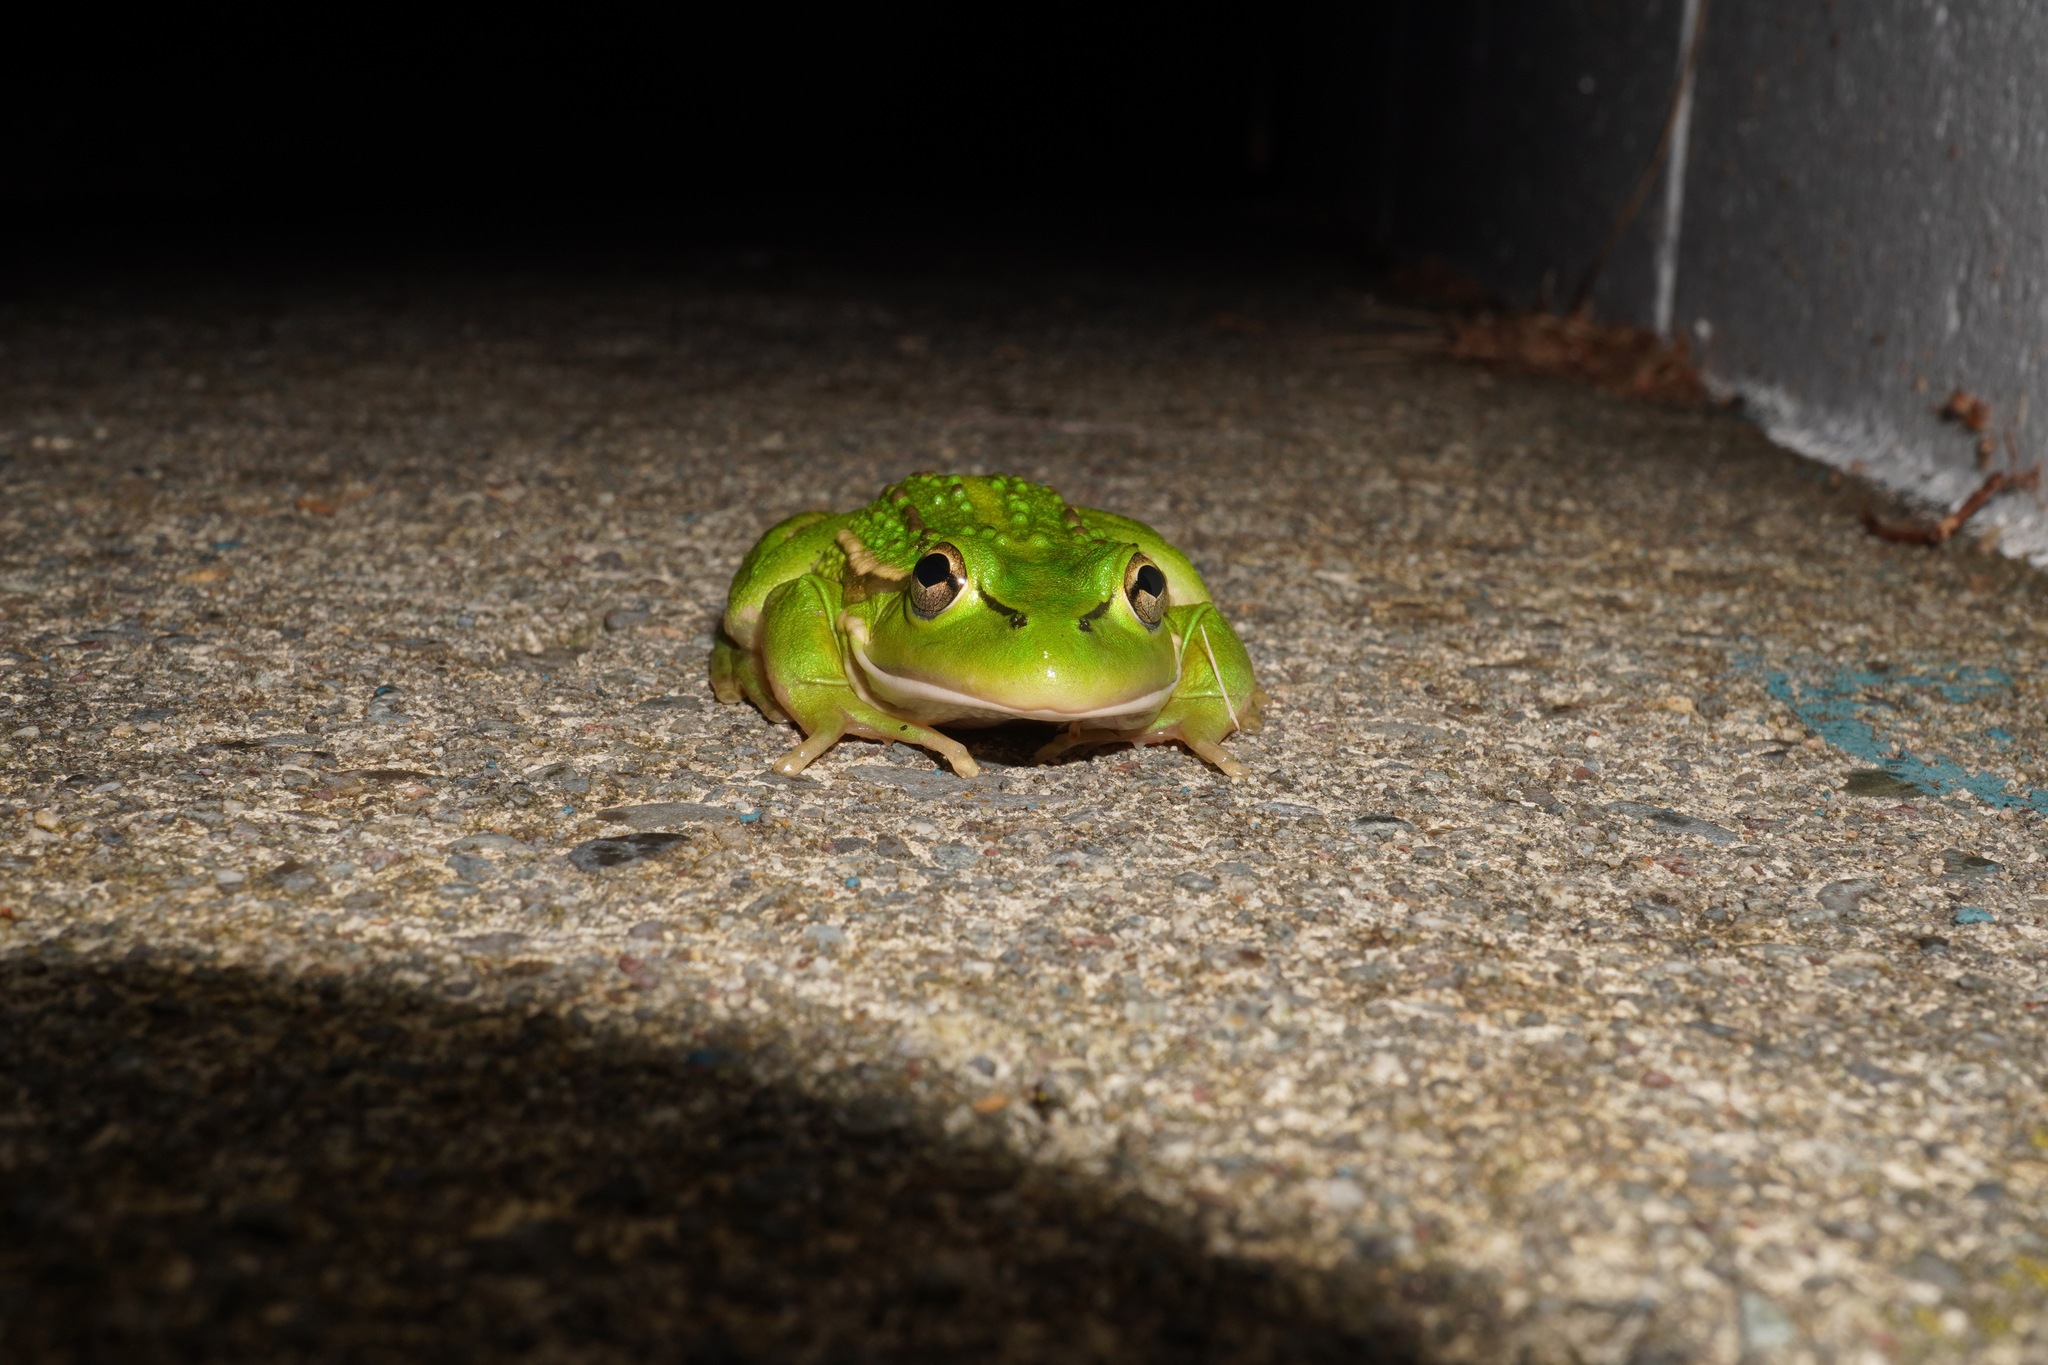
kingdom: Animalia
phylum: Chordata
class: Amphibia
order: Anura
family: Pelodryadidae
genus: Ranoidea
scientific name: Ranoidea raniformis
